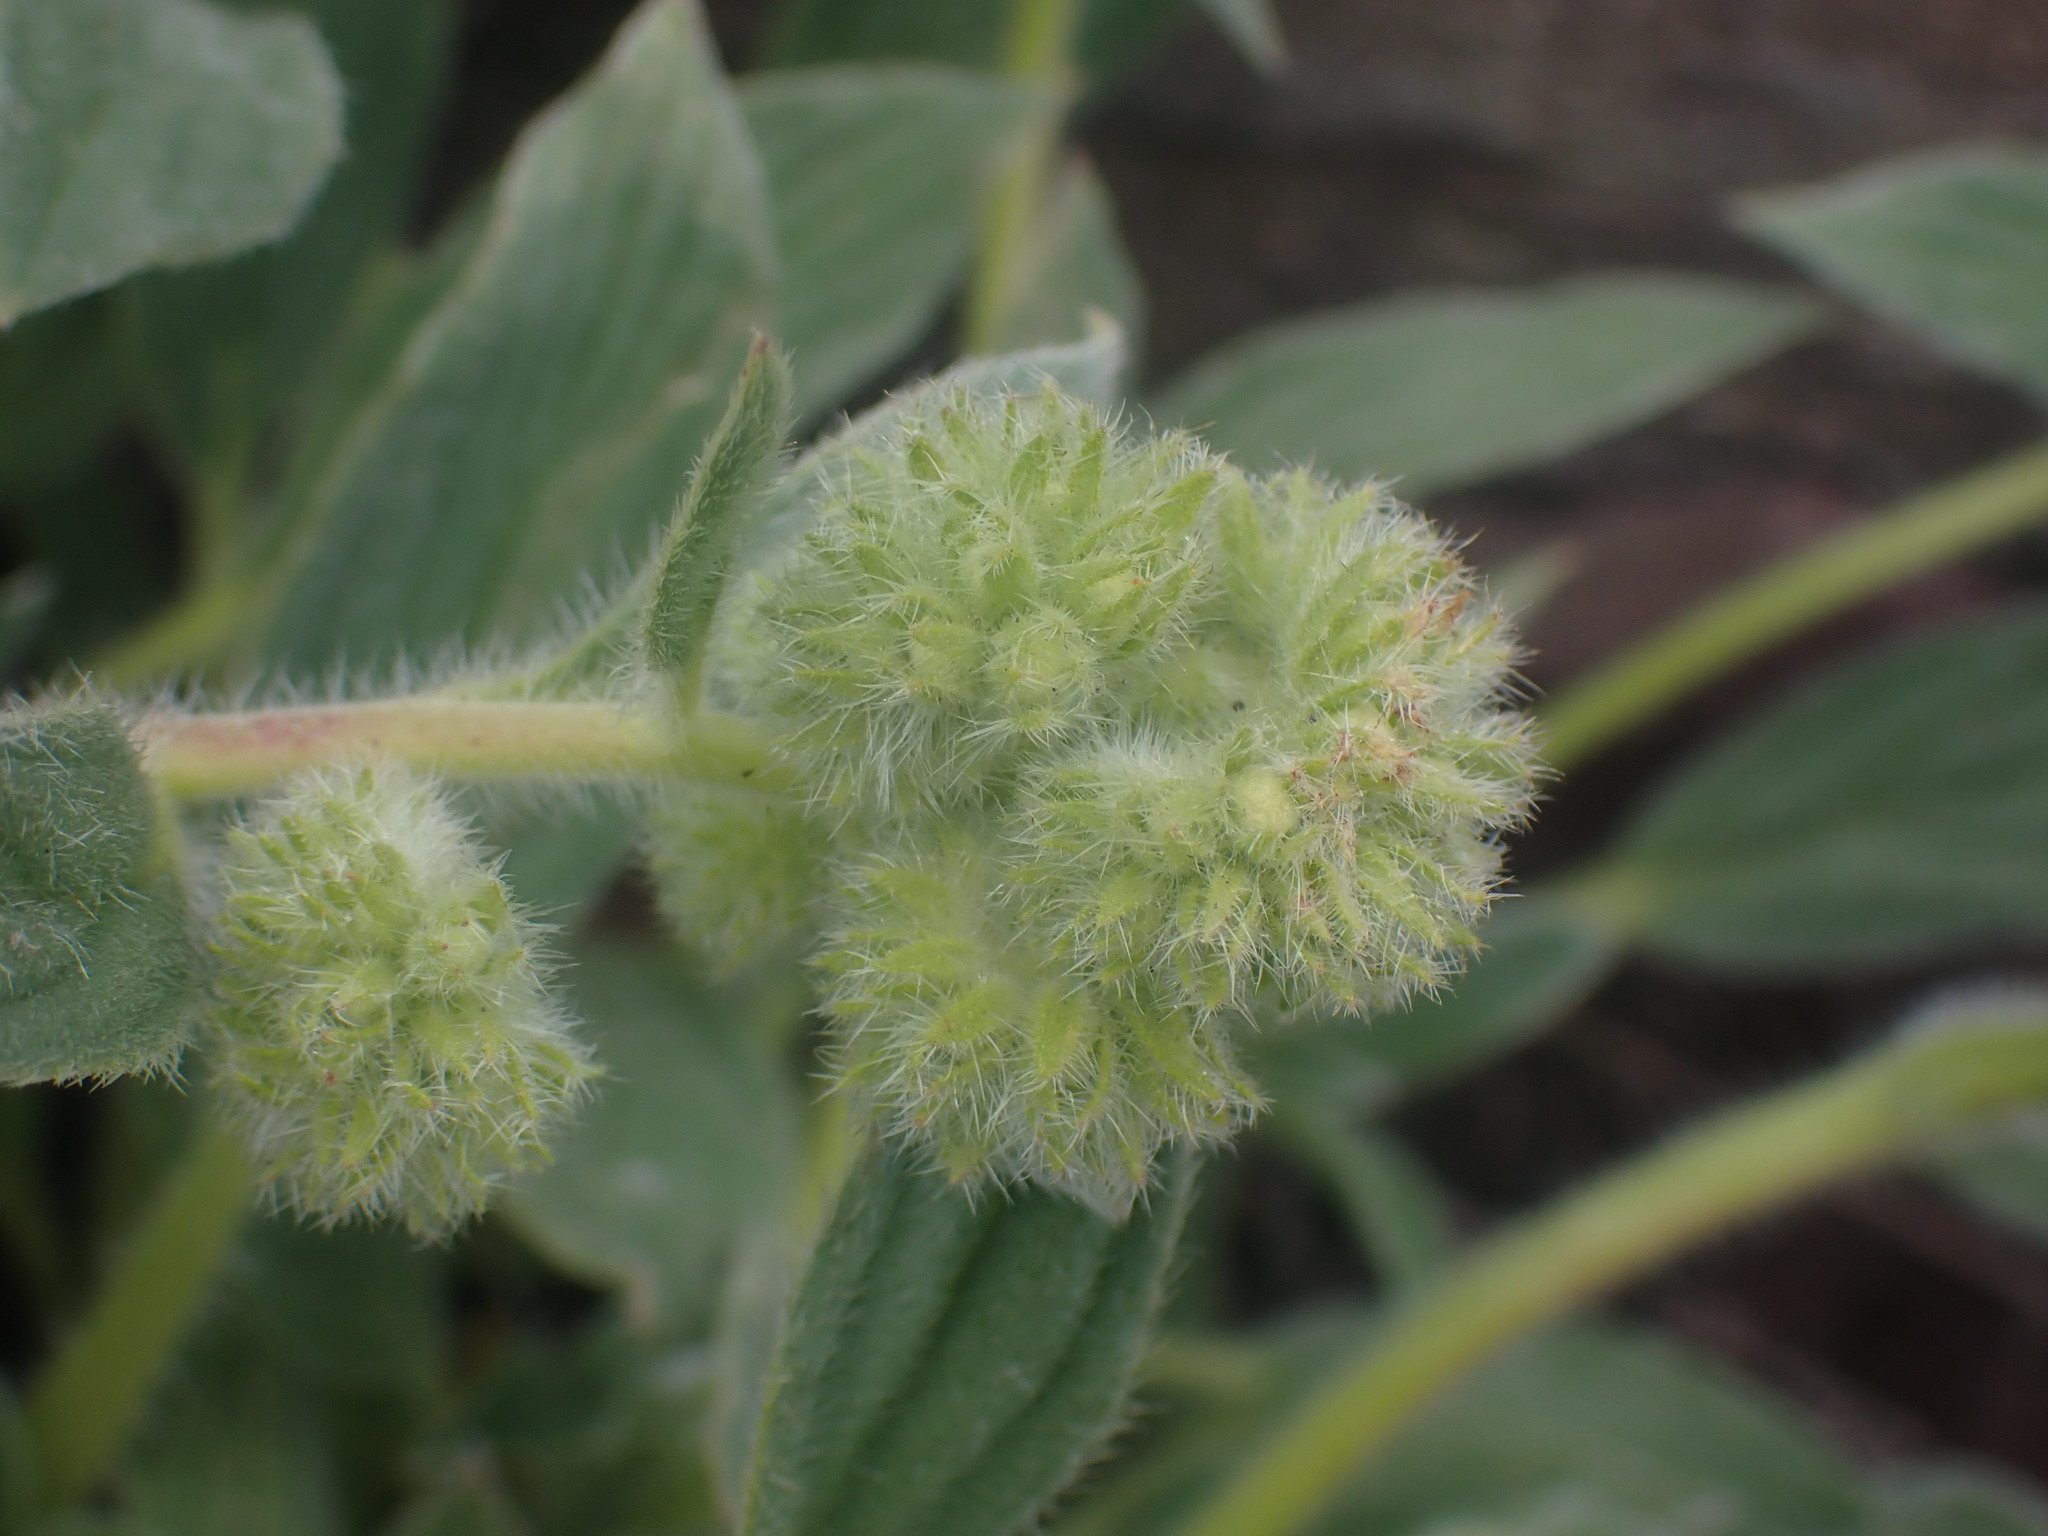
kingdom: Plantae
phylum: Tracheophyta
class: Magnoliopsida
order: Boraginales
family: Hydrophyllaceae
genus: Phacelia
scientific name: Phacelia hastata
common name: Silver-leaved phacelia
